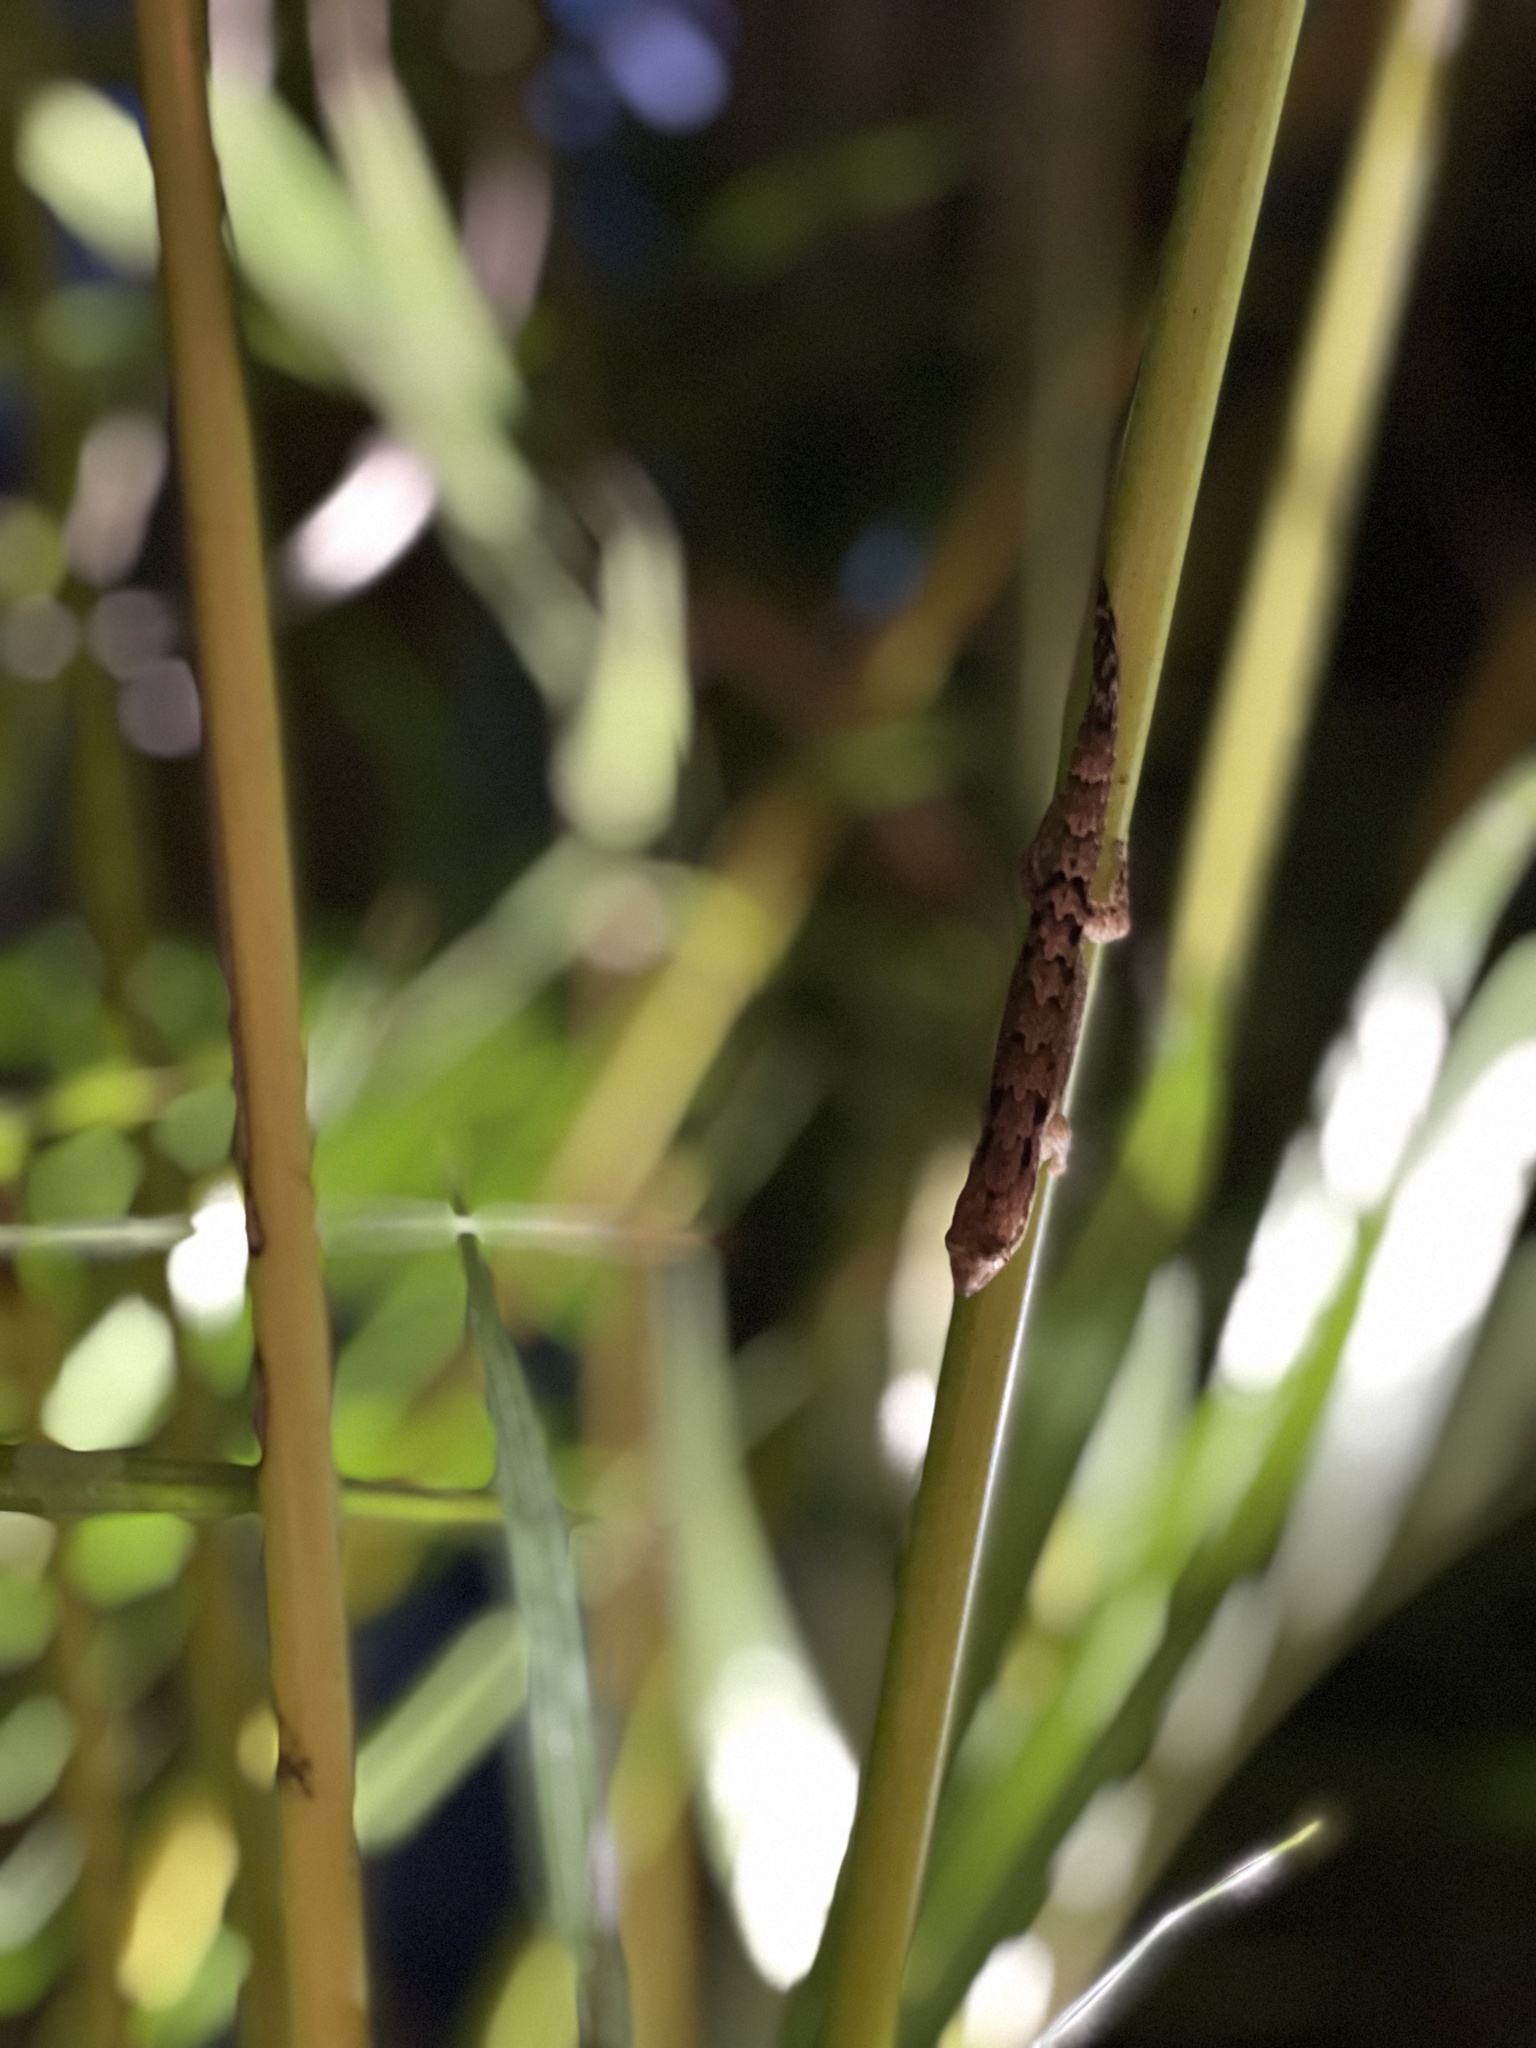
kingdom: Animalia
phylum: Chordata
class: Squamata
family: Gekkonidae
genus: Lepidodactylus
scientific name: Lepidodactylus lugubris
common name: Mourning gecko
